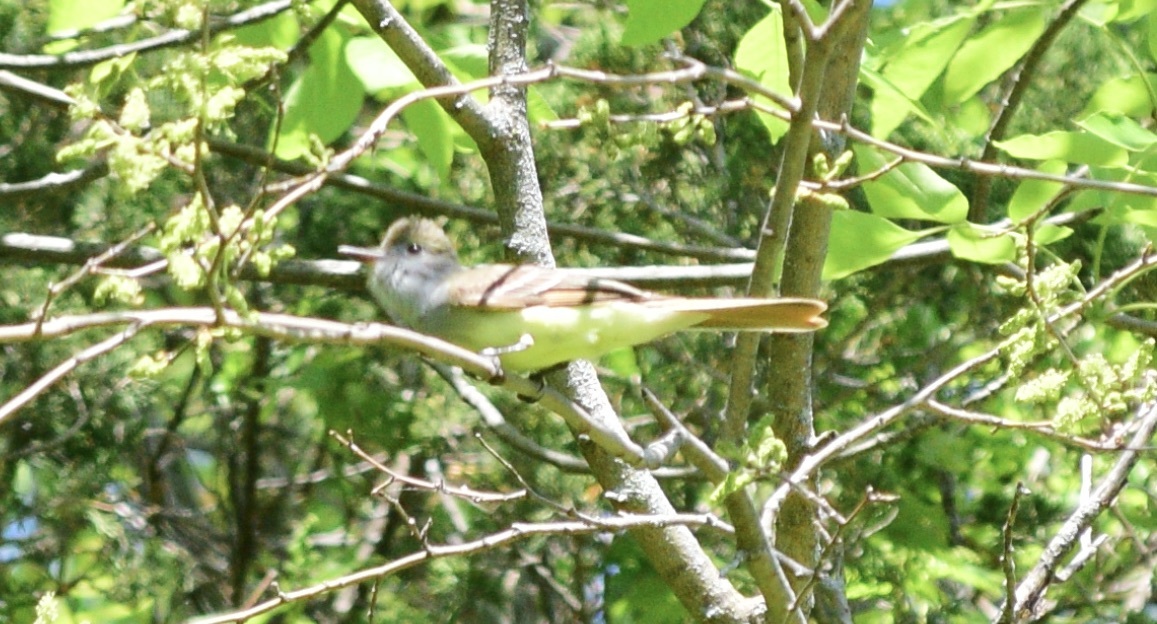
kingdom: Animalia
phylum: Chordata
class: Aves
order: Passeriformes
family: Tyrannidae
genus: Myiarchus
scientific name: Myiarchus crinitus
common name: Great crested flycatcher
